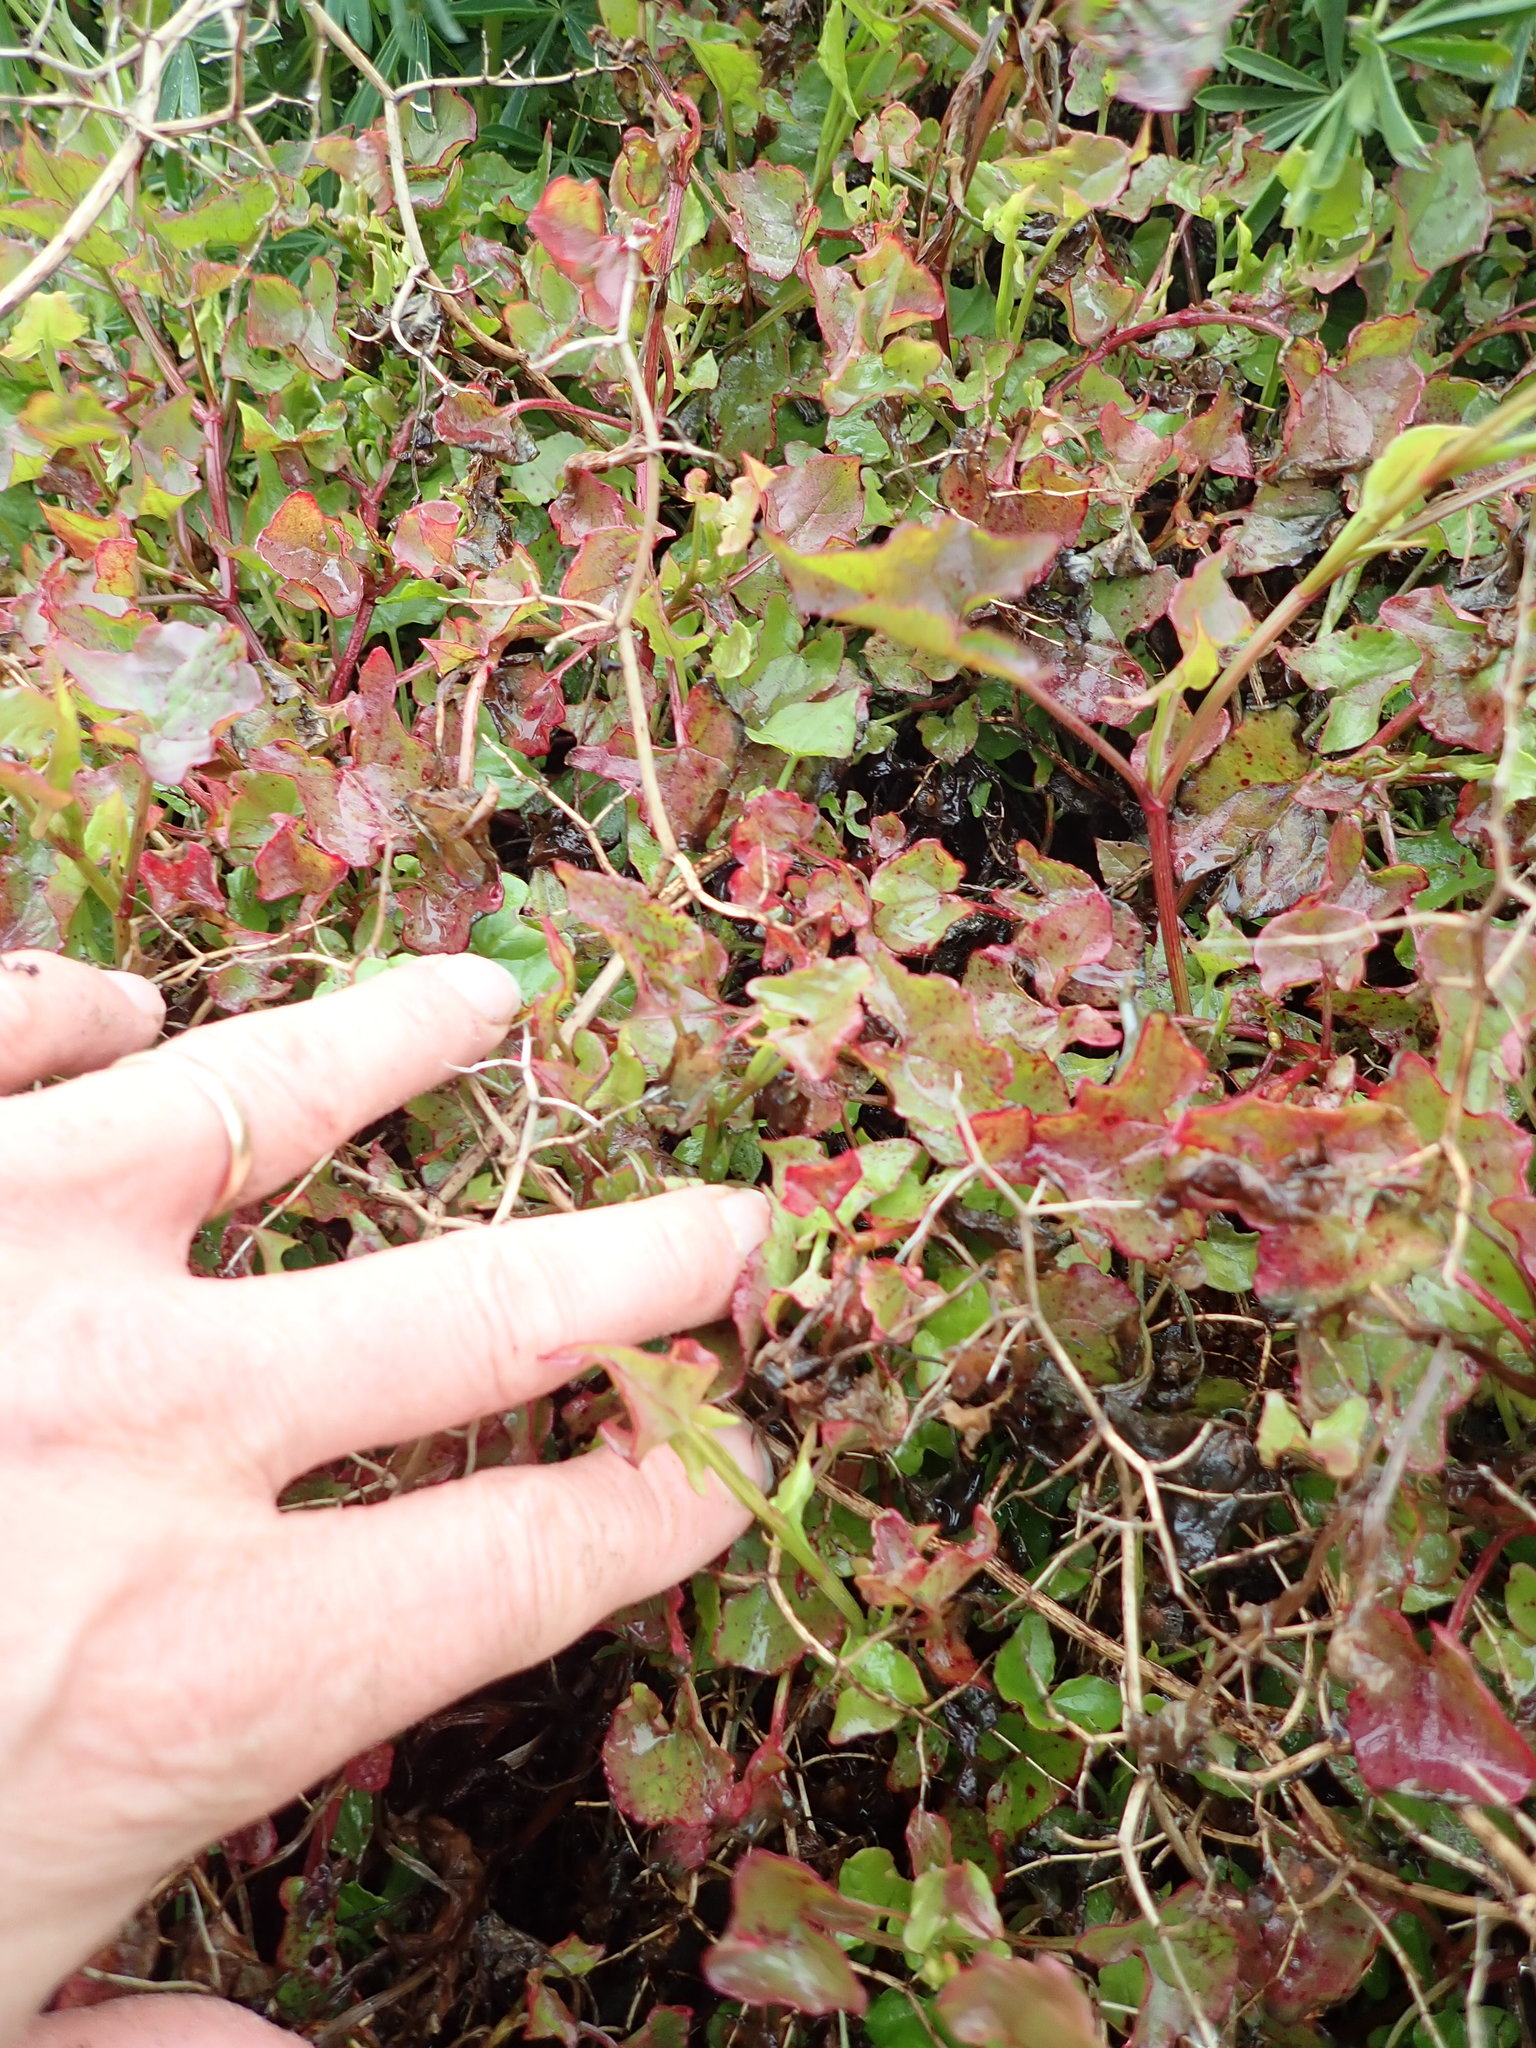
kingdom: Plantae
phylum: Tracheophyta
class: Magnoliopsida
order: Caryophyllales
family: Polygonaceae
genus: Rumex
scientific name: Rumex sagittatus
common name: Climbing dock
